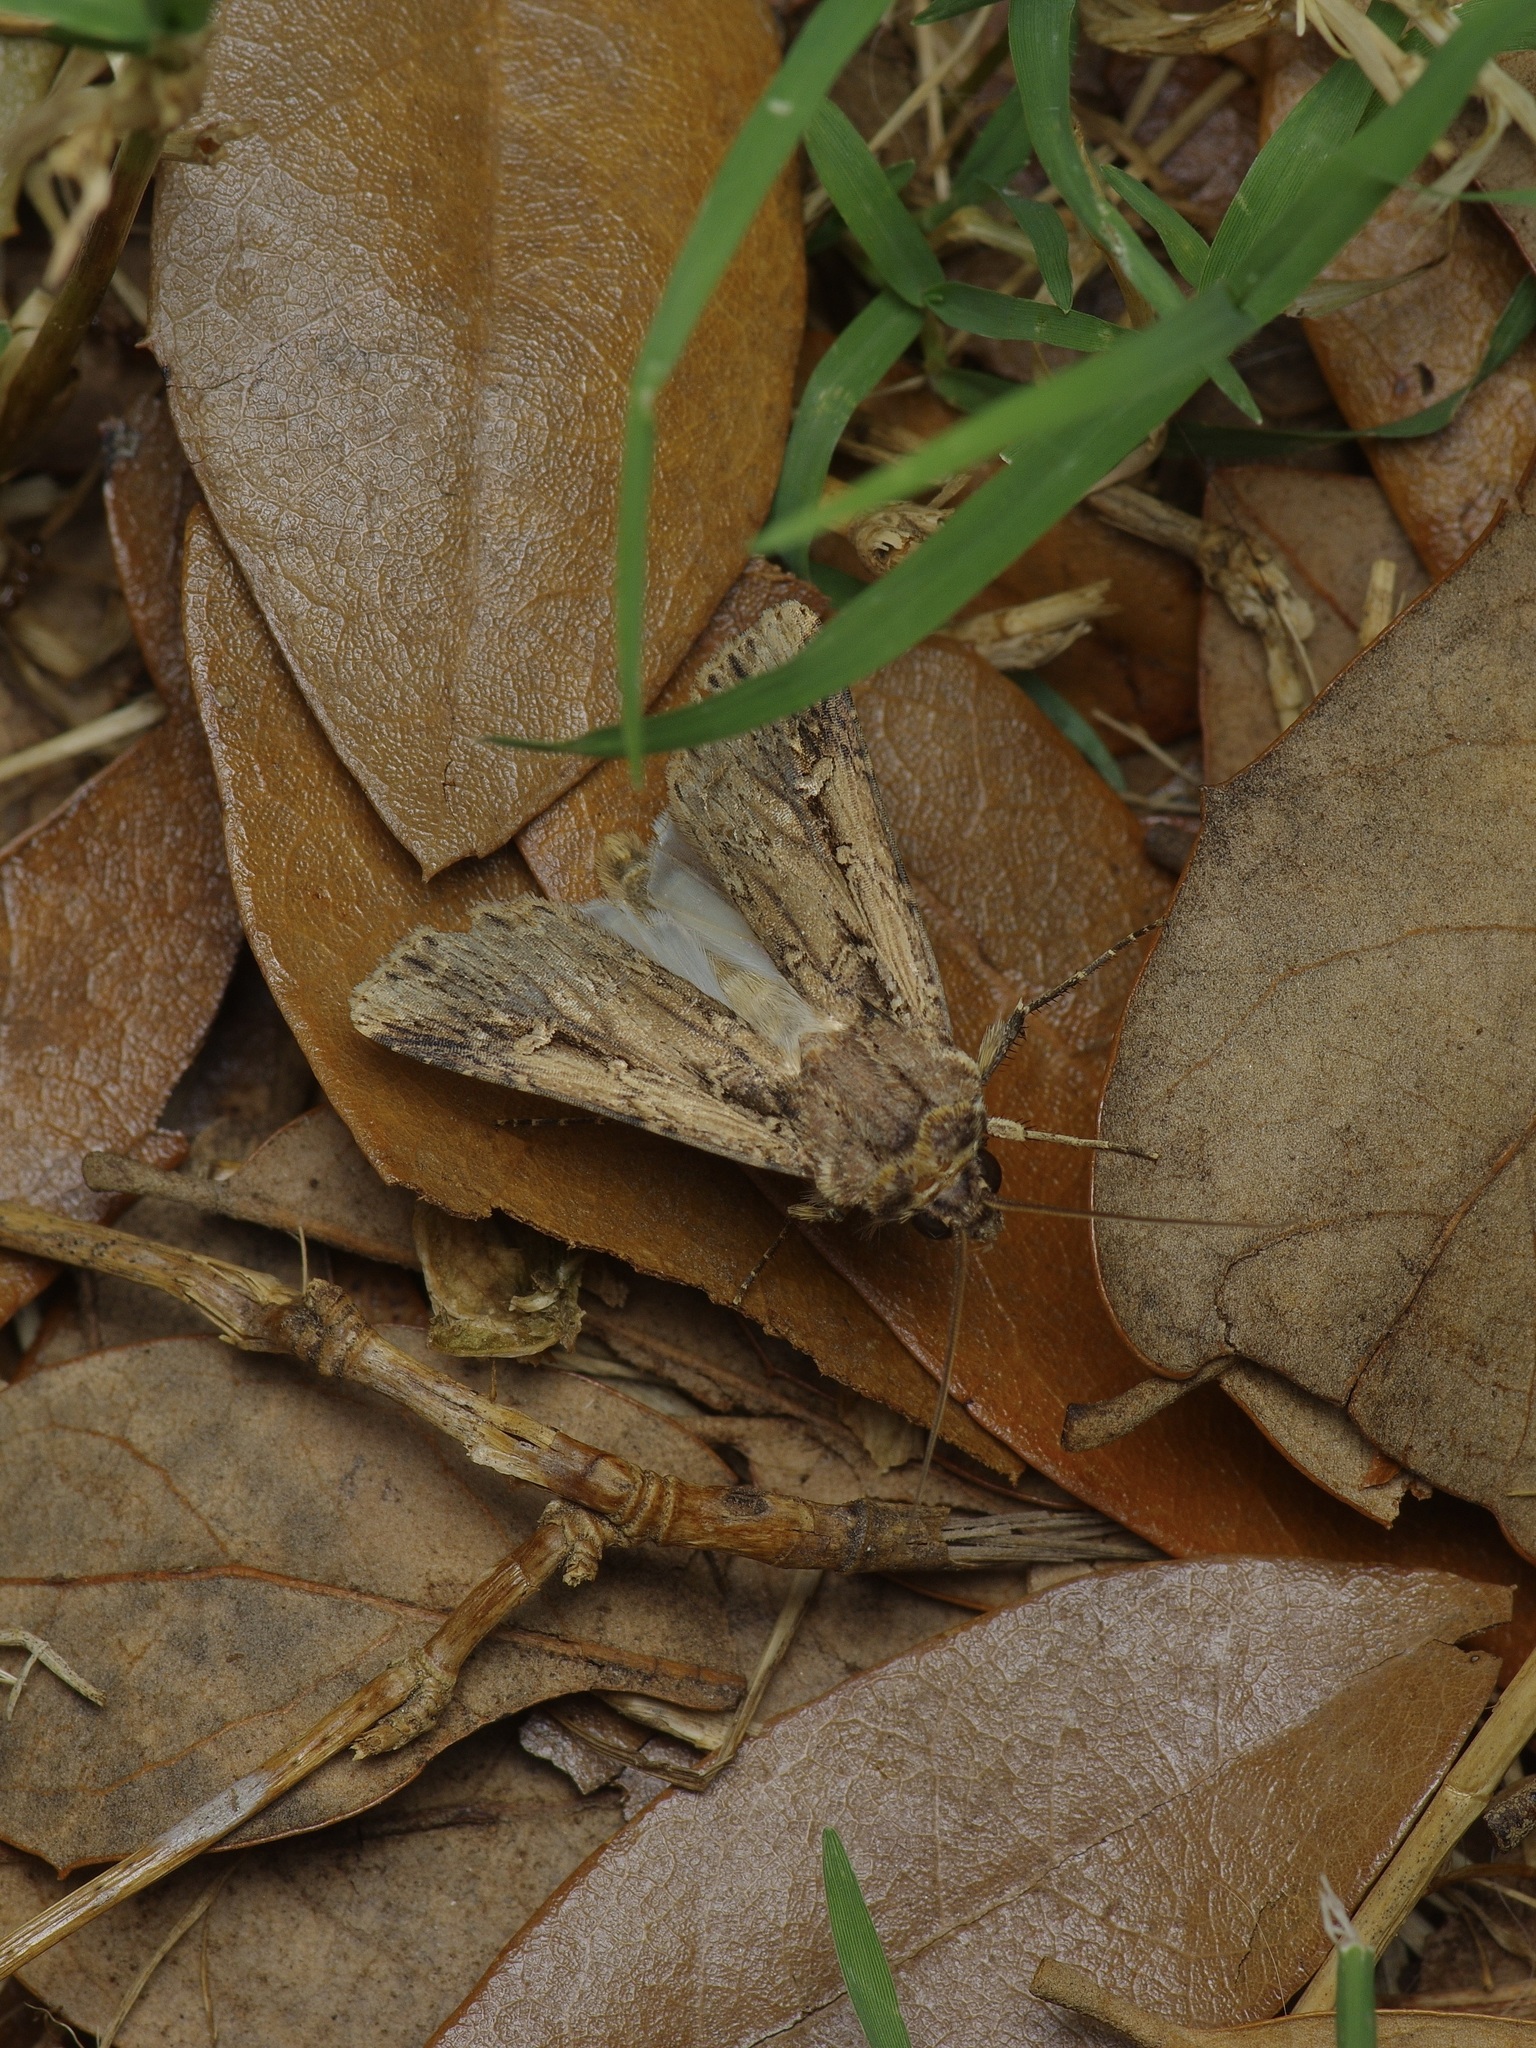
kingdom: Animalia
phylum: Arthropoda
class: Insecta
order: Lepidoptera
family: Noctuidae
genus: Feltia
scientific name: Feltia subterranea
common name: Granulate cutworm
